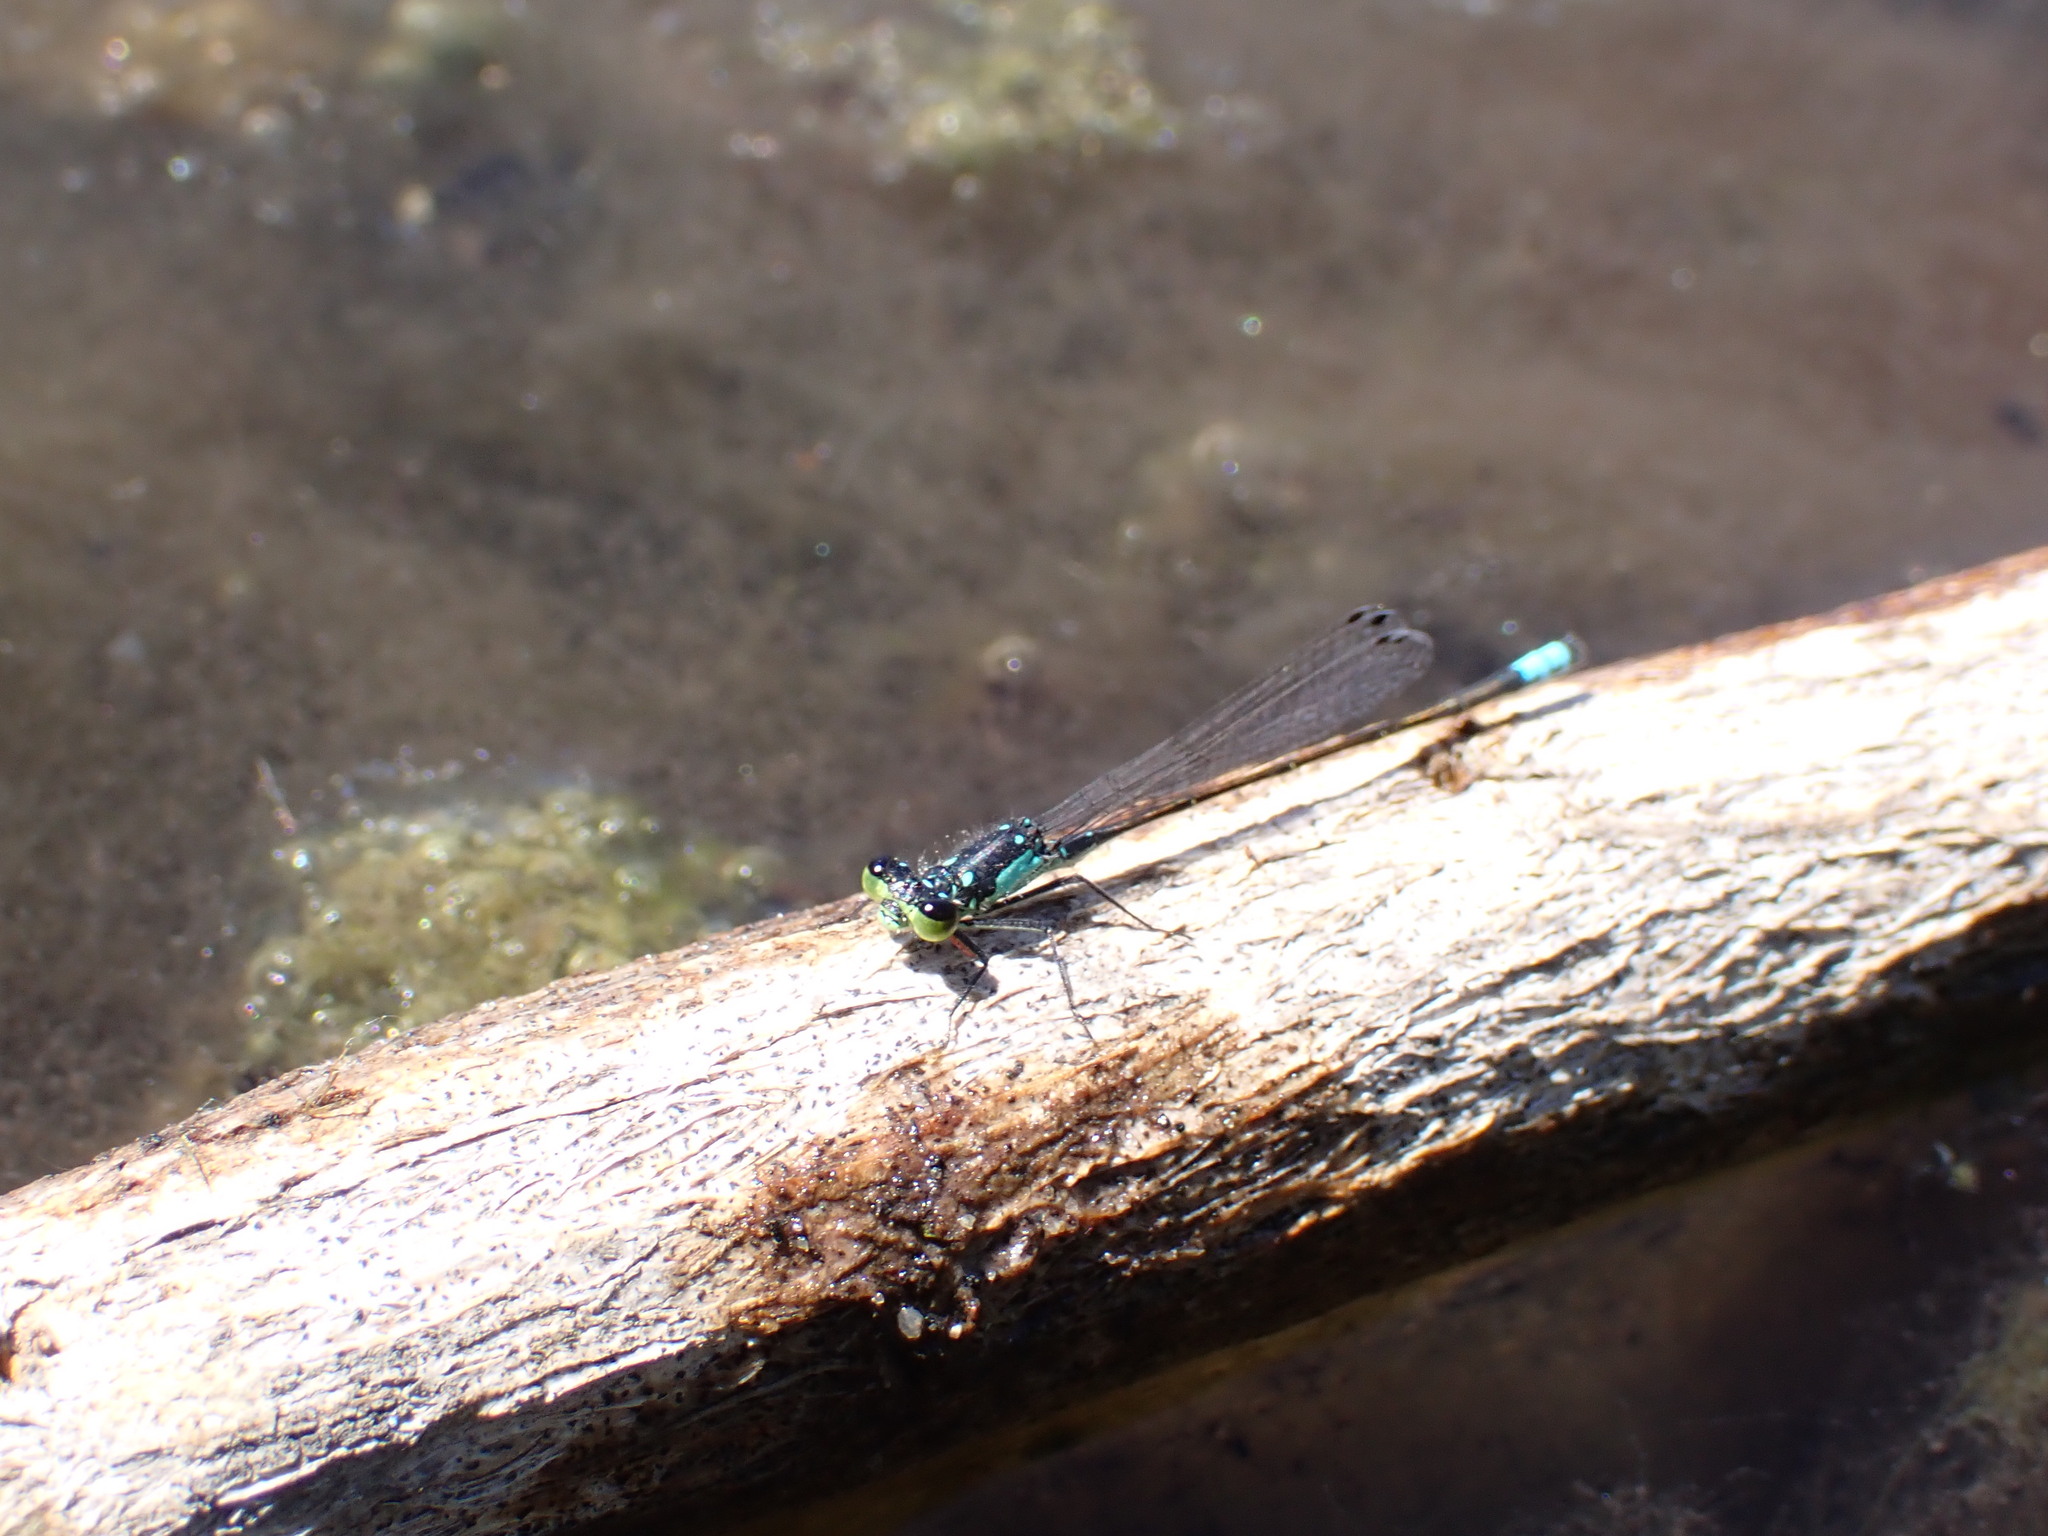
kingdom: Animalia
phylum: Arthropoda
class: Insecta
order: Odonata
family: Coenagrionidae
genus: Ischnura
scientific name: Ischnura cervula
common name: Pacific forktail
